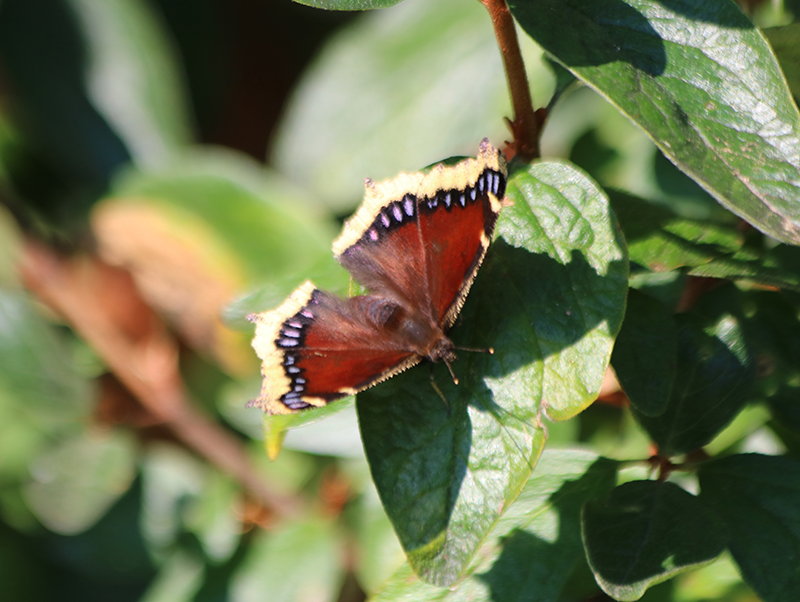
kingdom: Animalia
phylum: Arthropoda
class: Insecta
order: Lepidoptera
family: Nymphalidae
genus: Nymphalis
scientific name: Nymphalis antiopa
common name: Camberwell beauty
